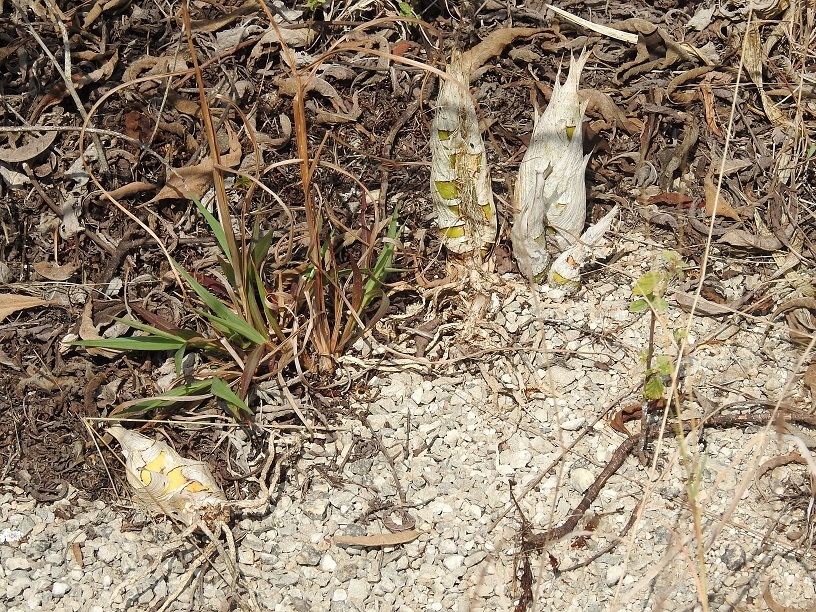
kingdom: Plantae
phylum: Tracheophyta
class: Liliopsida
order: Asparagales
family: Orchidaceae
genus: Cyrtopodium
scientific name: Cyrtopodium macrobulbon
